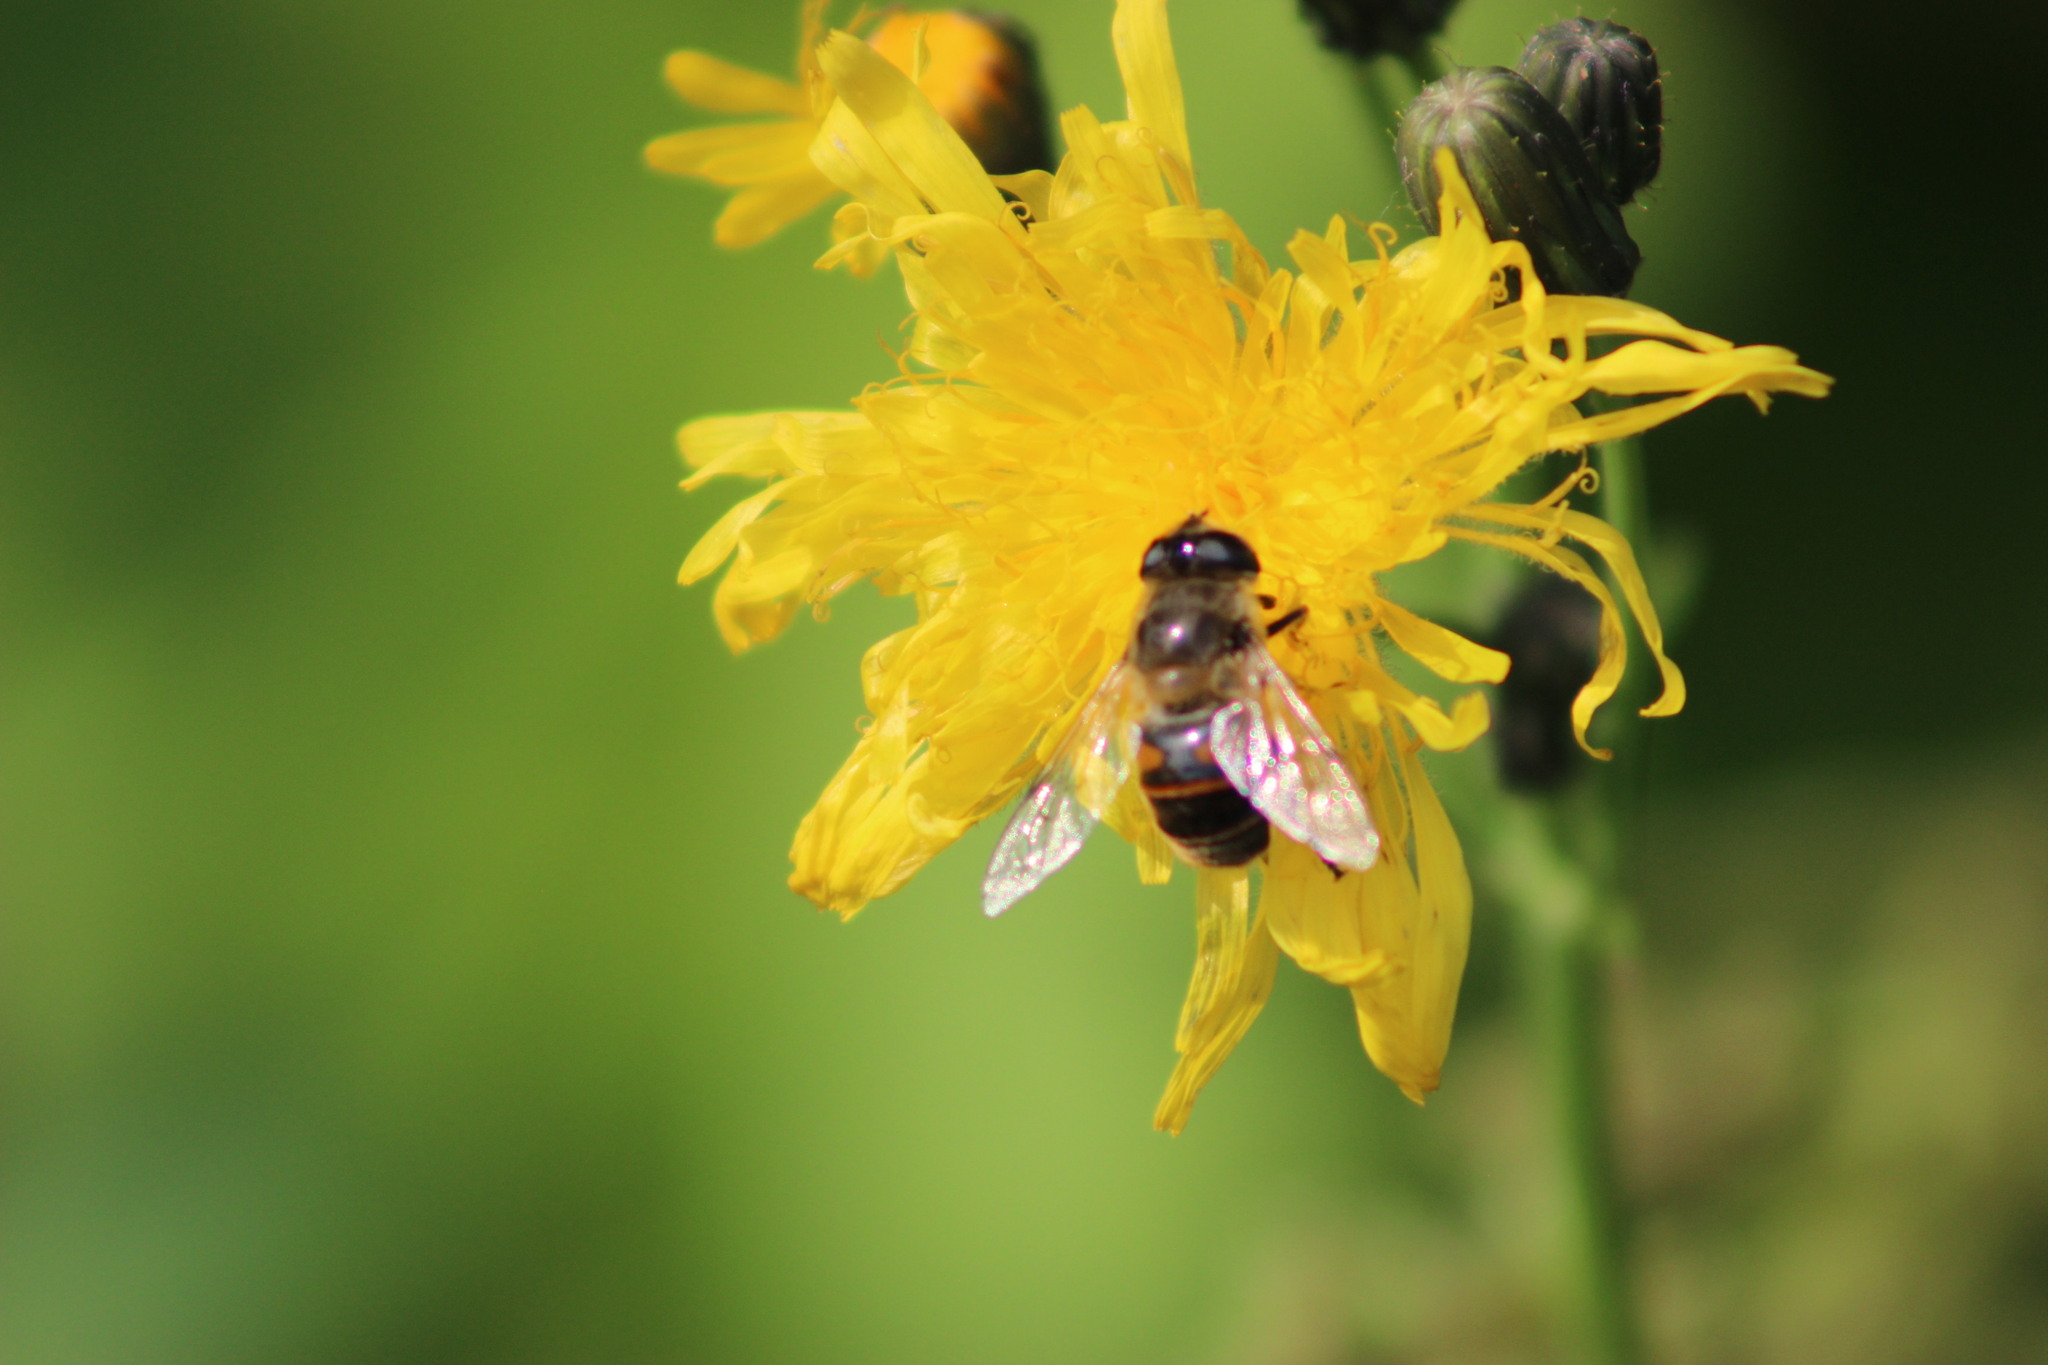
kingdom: Animalia
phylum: Arthropoda
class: Insecta
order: Diptera
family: Syrphidae
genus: Eristalis
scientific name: Eristalis tenax
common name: Drone fly
